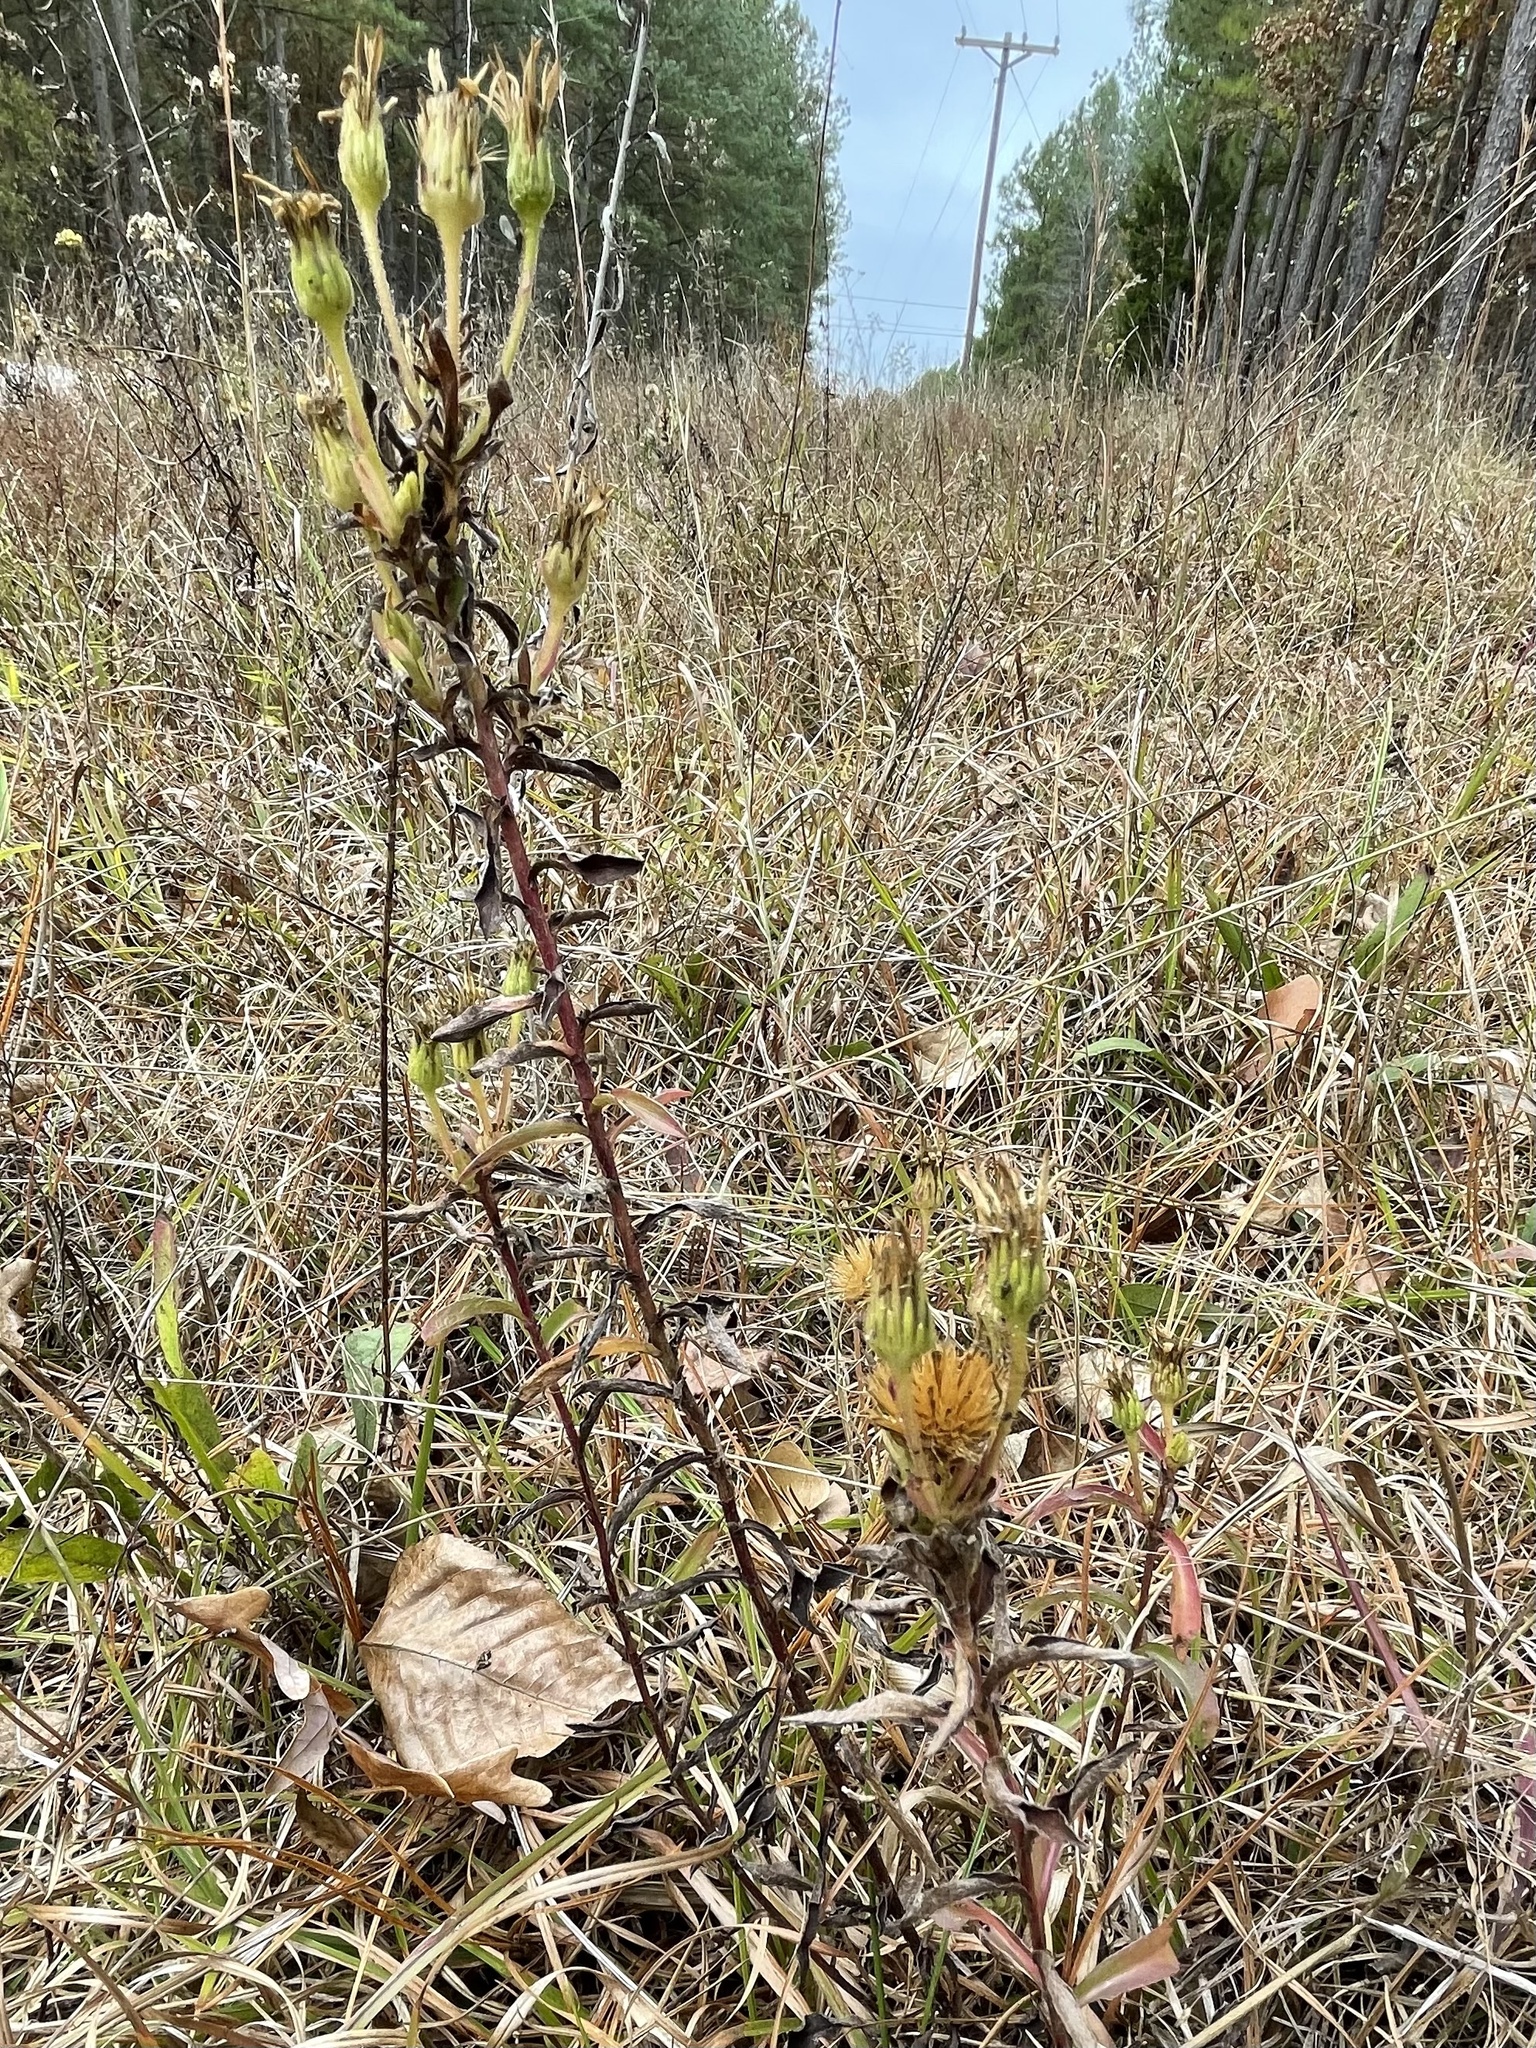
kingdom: Plantae
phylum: Tracheophyta
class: Magnoliopsida
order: Asterales
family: Asteraceae
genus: Chrysopsis
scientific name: Chrysopsis mariana
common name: Maryland golden-aster
